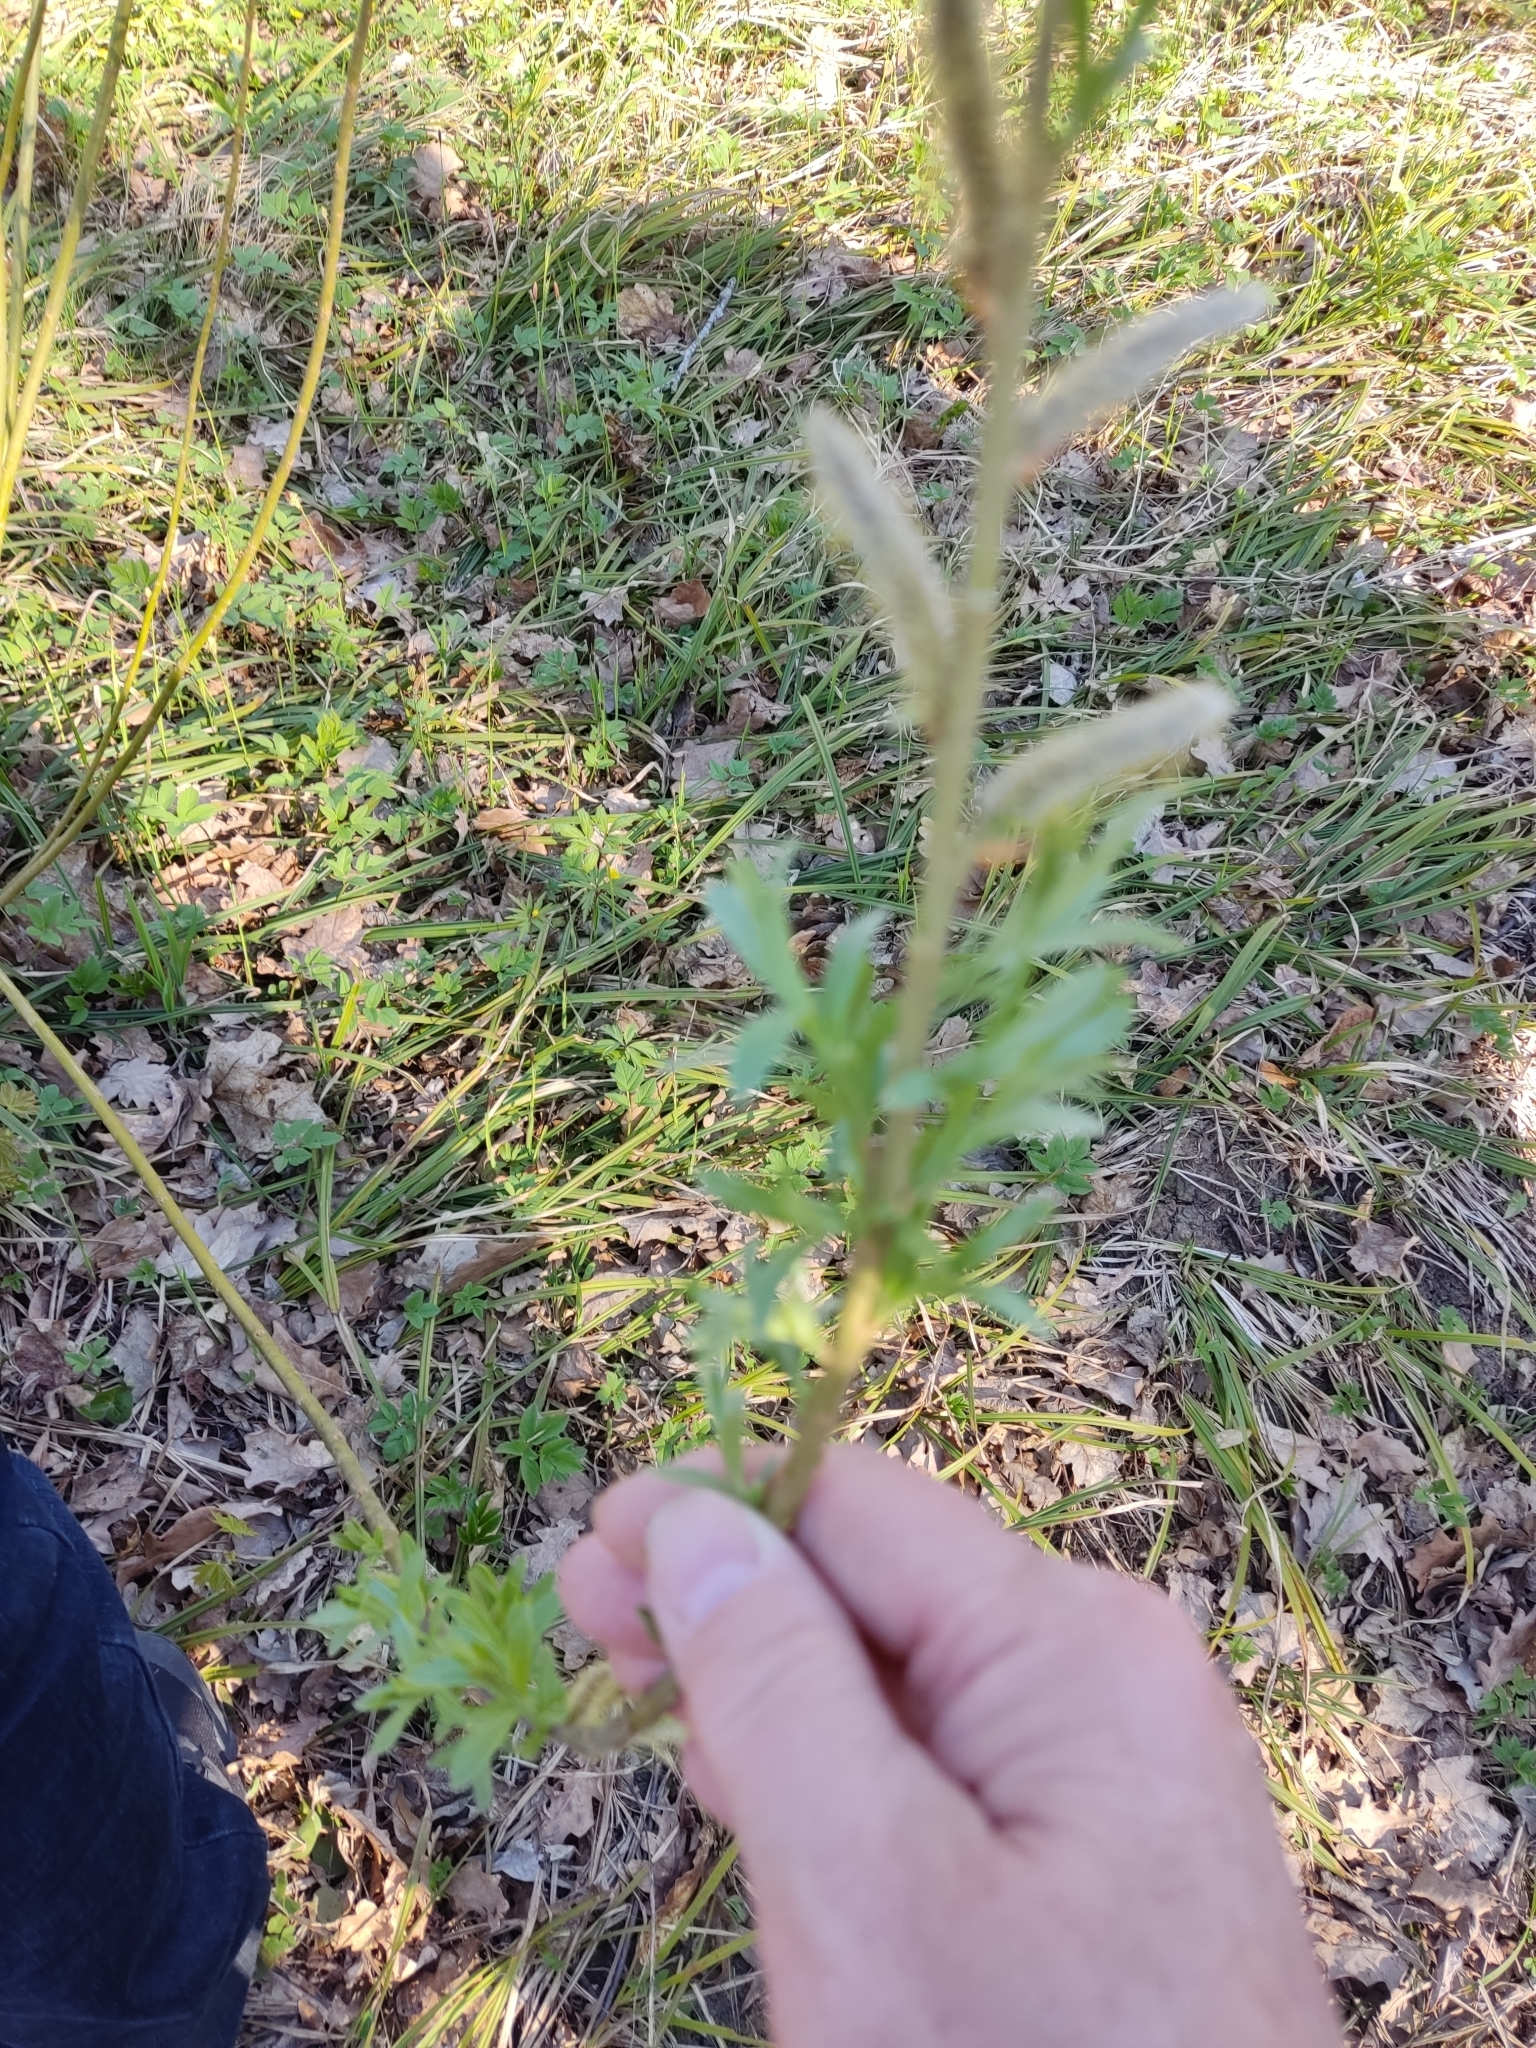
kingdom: Plantae
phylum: Tracheophyta
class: Magnoliopsida
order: Malpighiales
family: Salicaceae
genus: Salix
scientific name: Salix triandra
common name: Almond willow
